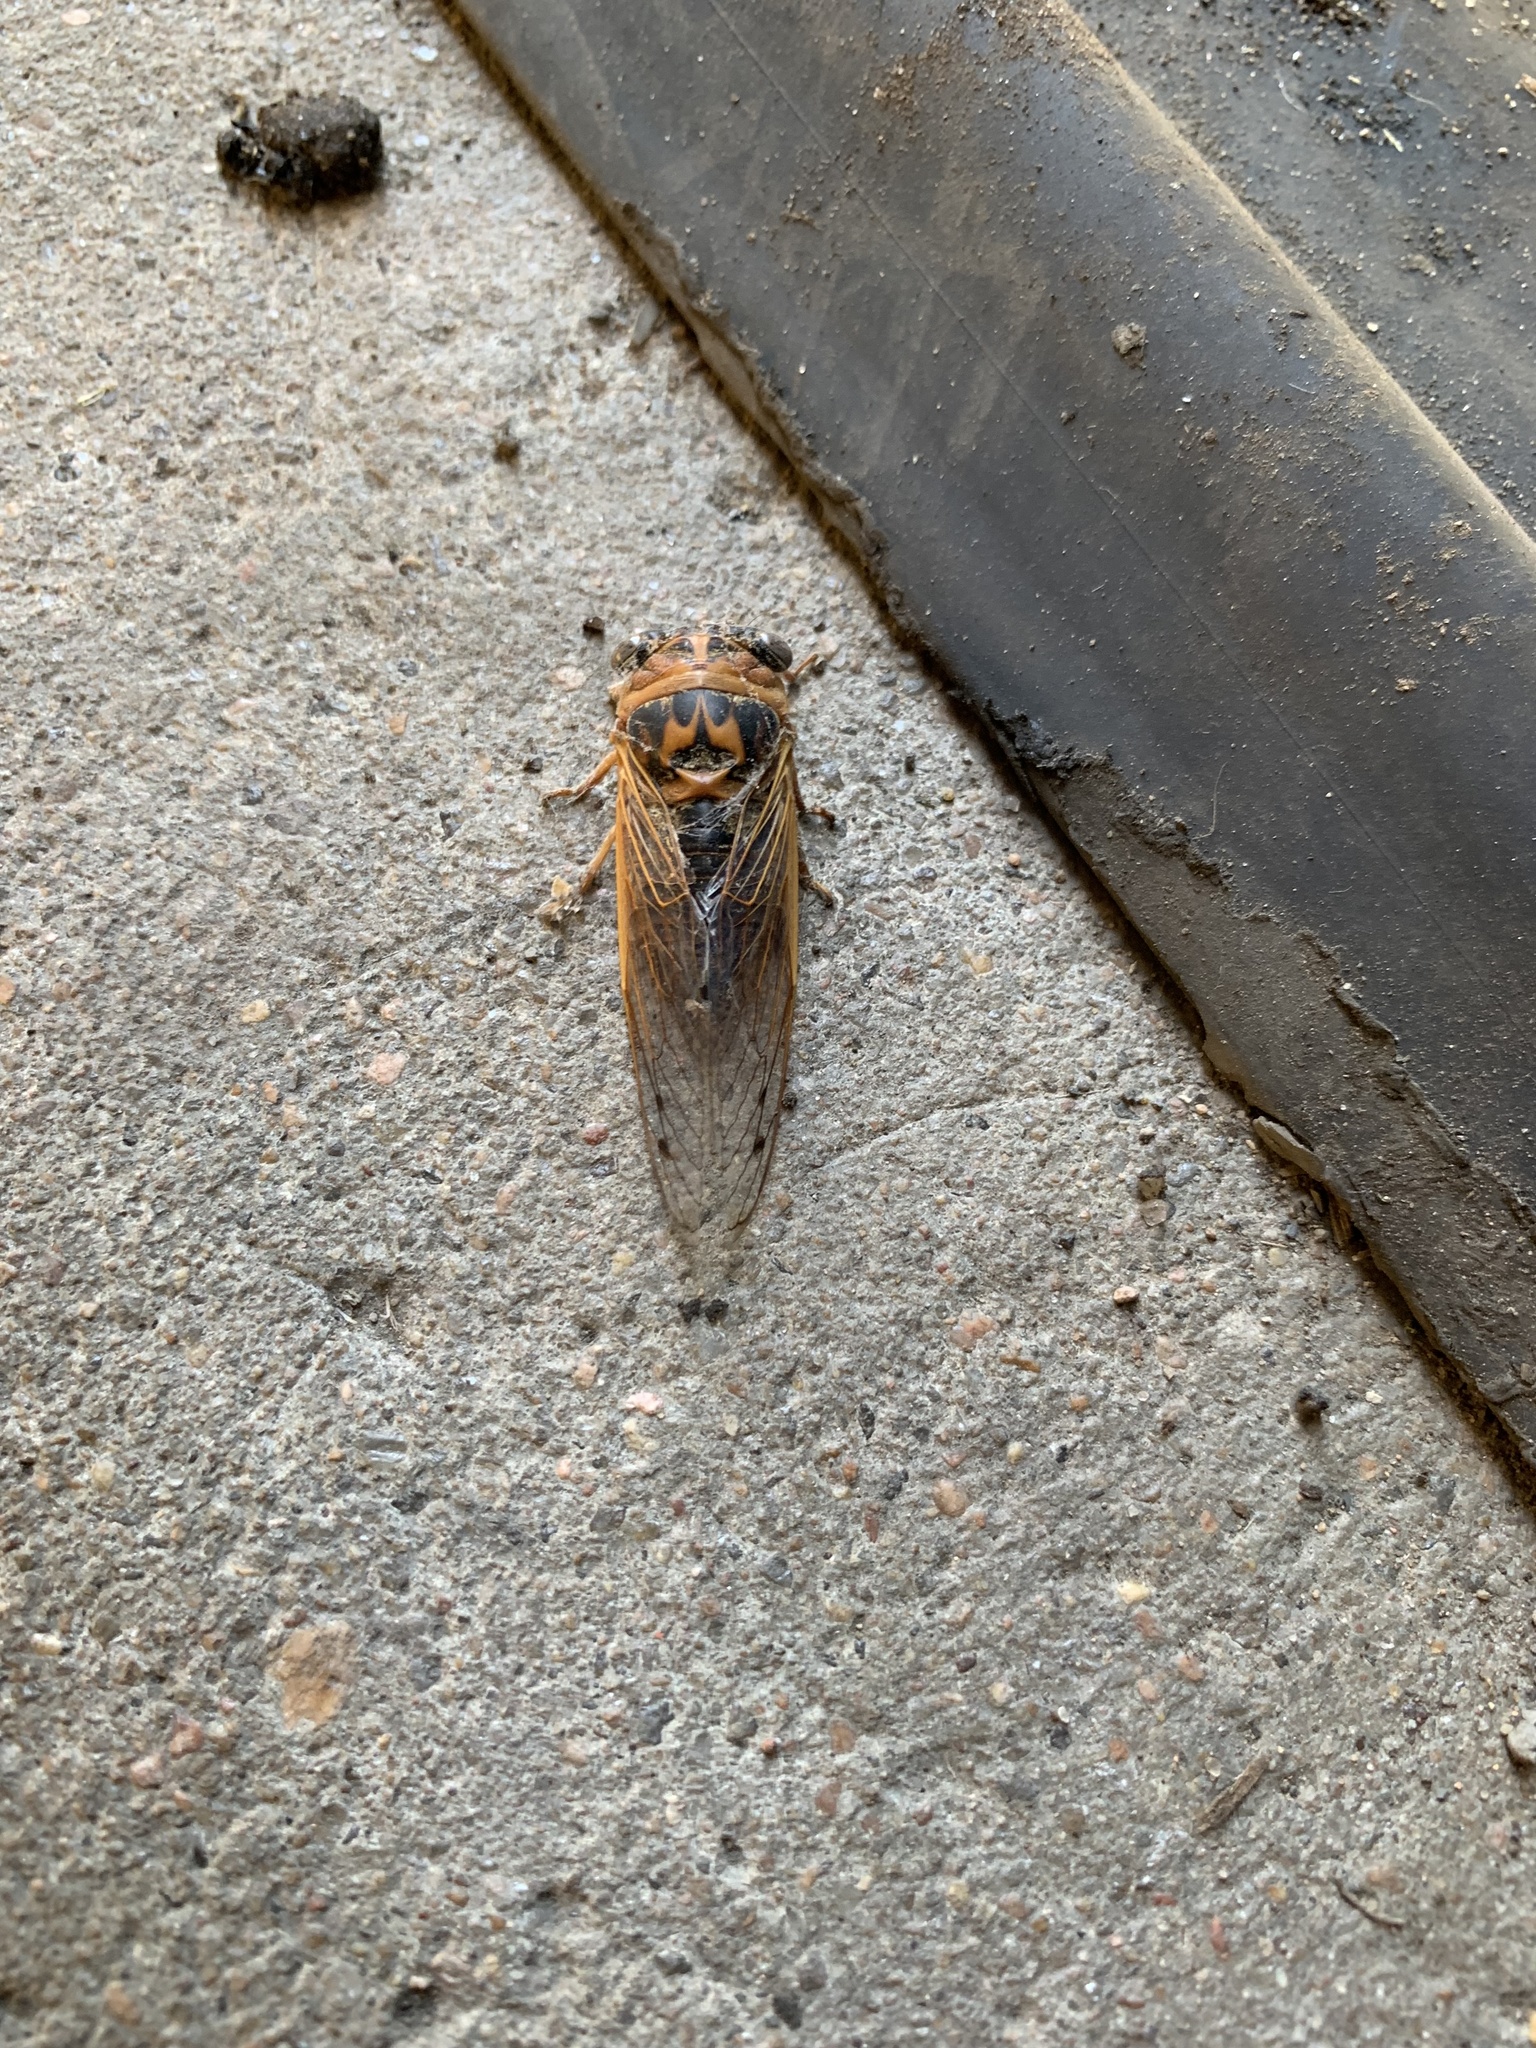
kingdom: Animalia
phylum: Arthropoda
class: Insecta
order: Hemiptera
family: Cicadidae
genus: Neotibicen
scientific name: Neotibicen aurifer
